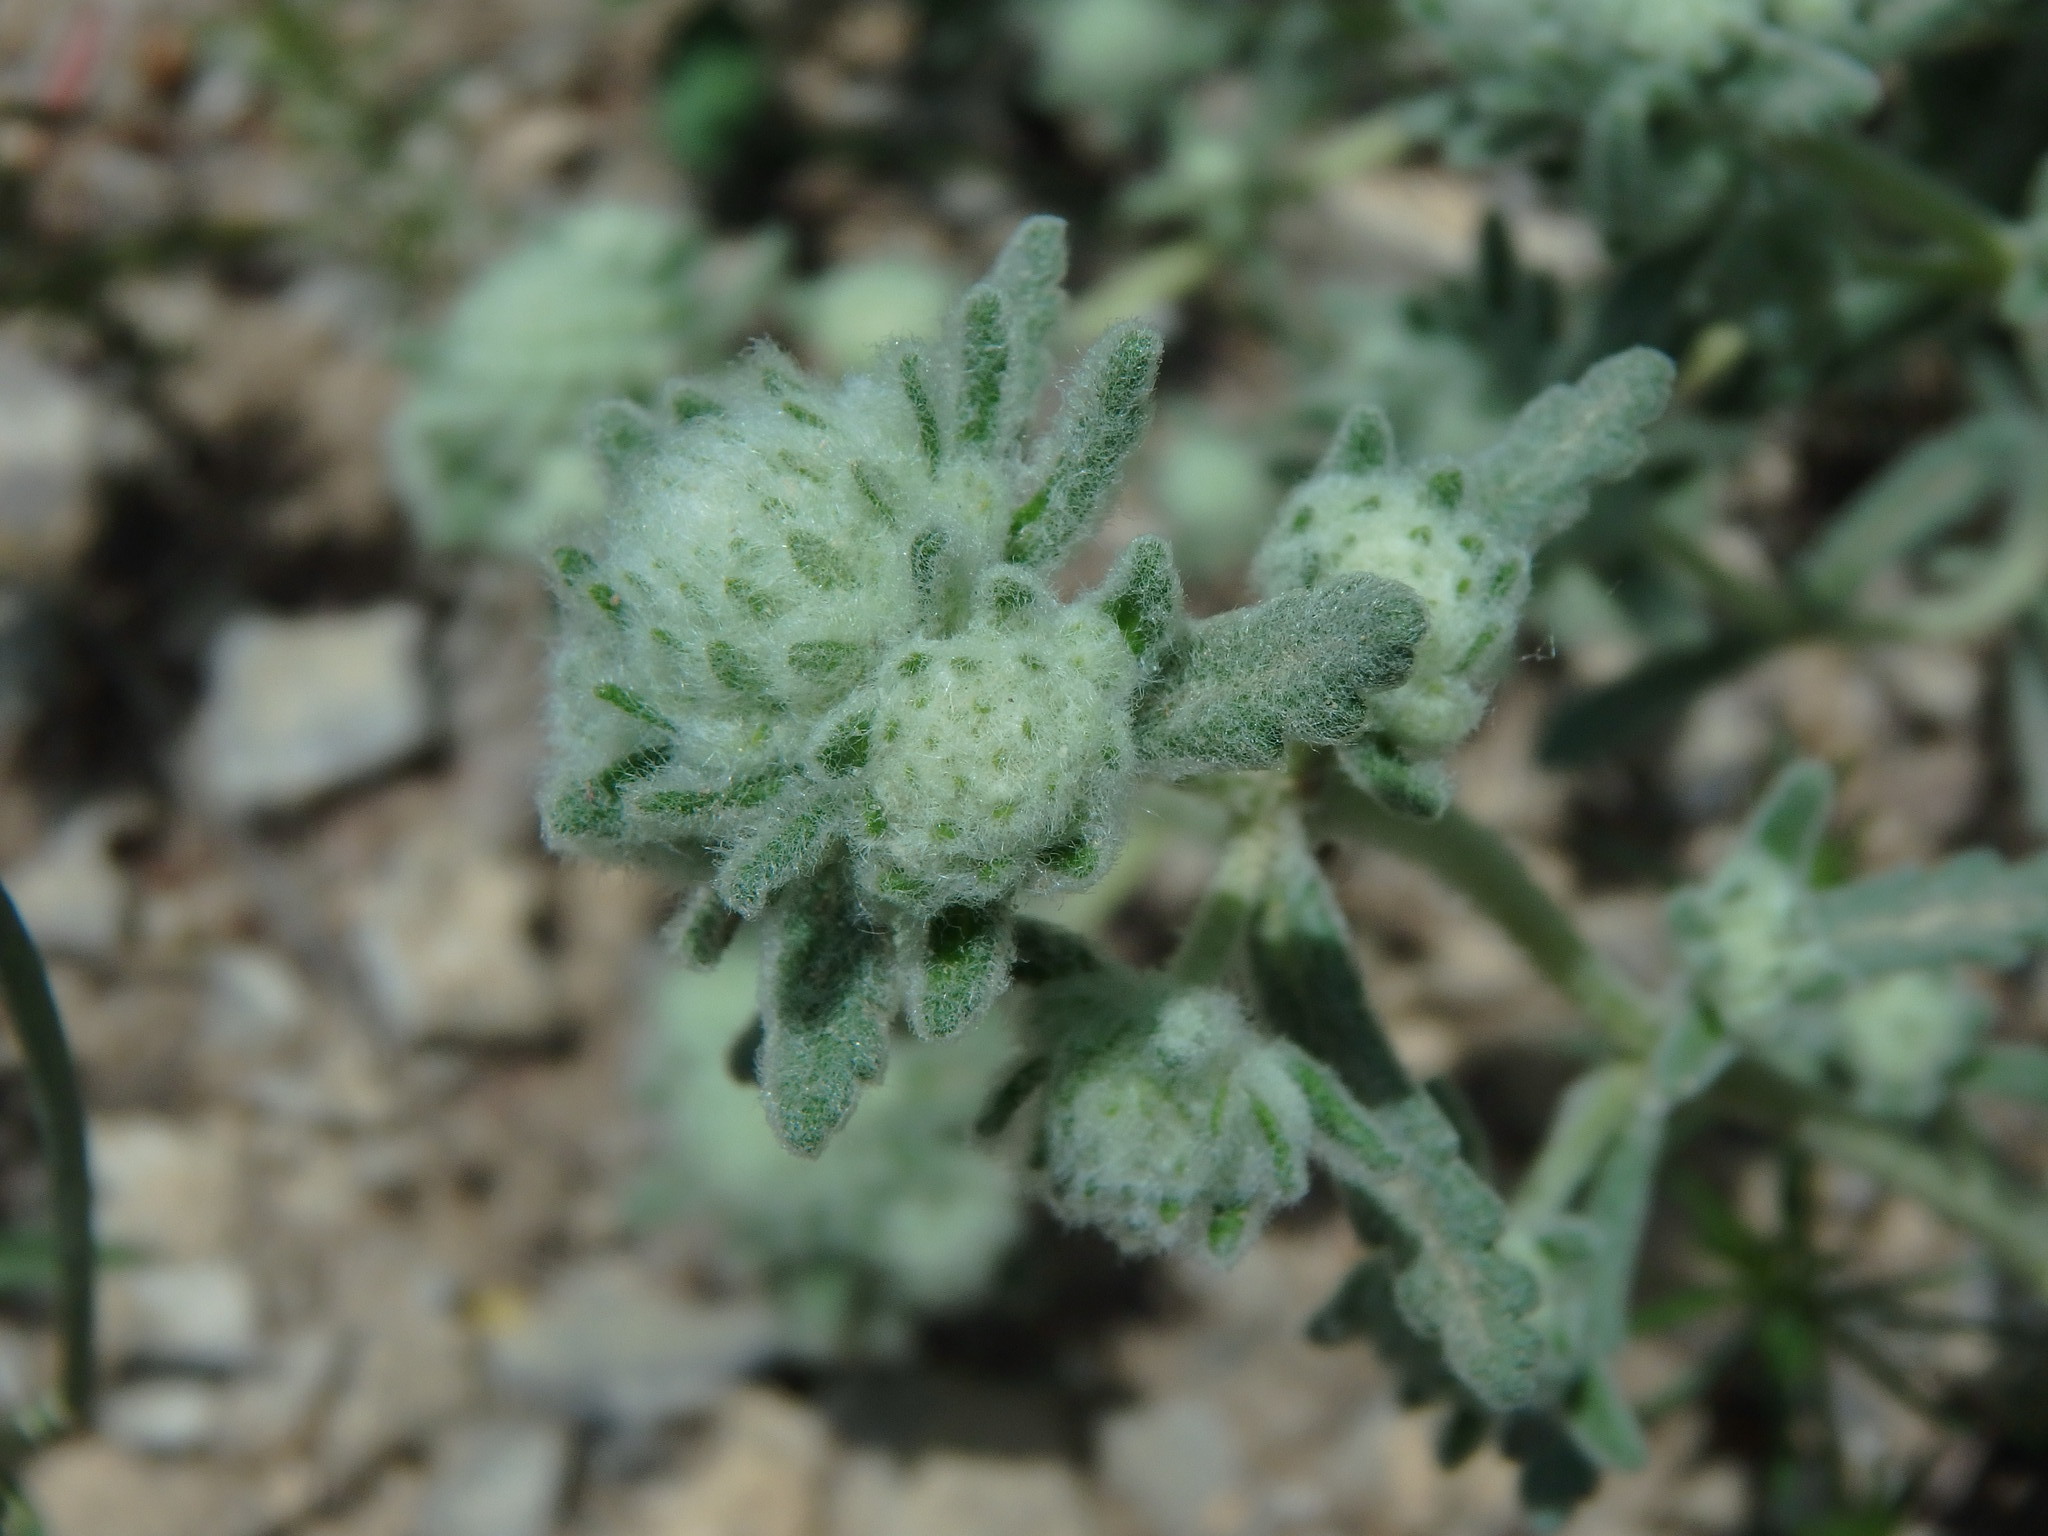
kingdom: Plantae
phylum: Tracheophyta
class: Magnoliopsida
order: Lamiales
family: Lamiaceae
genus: Teucrium
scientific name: Teucrium polium
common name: Poley
